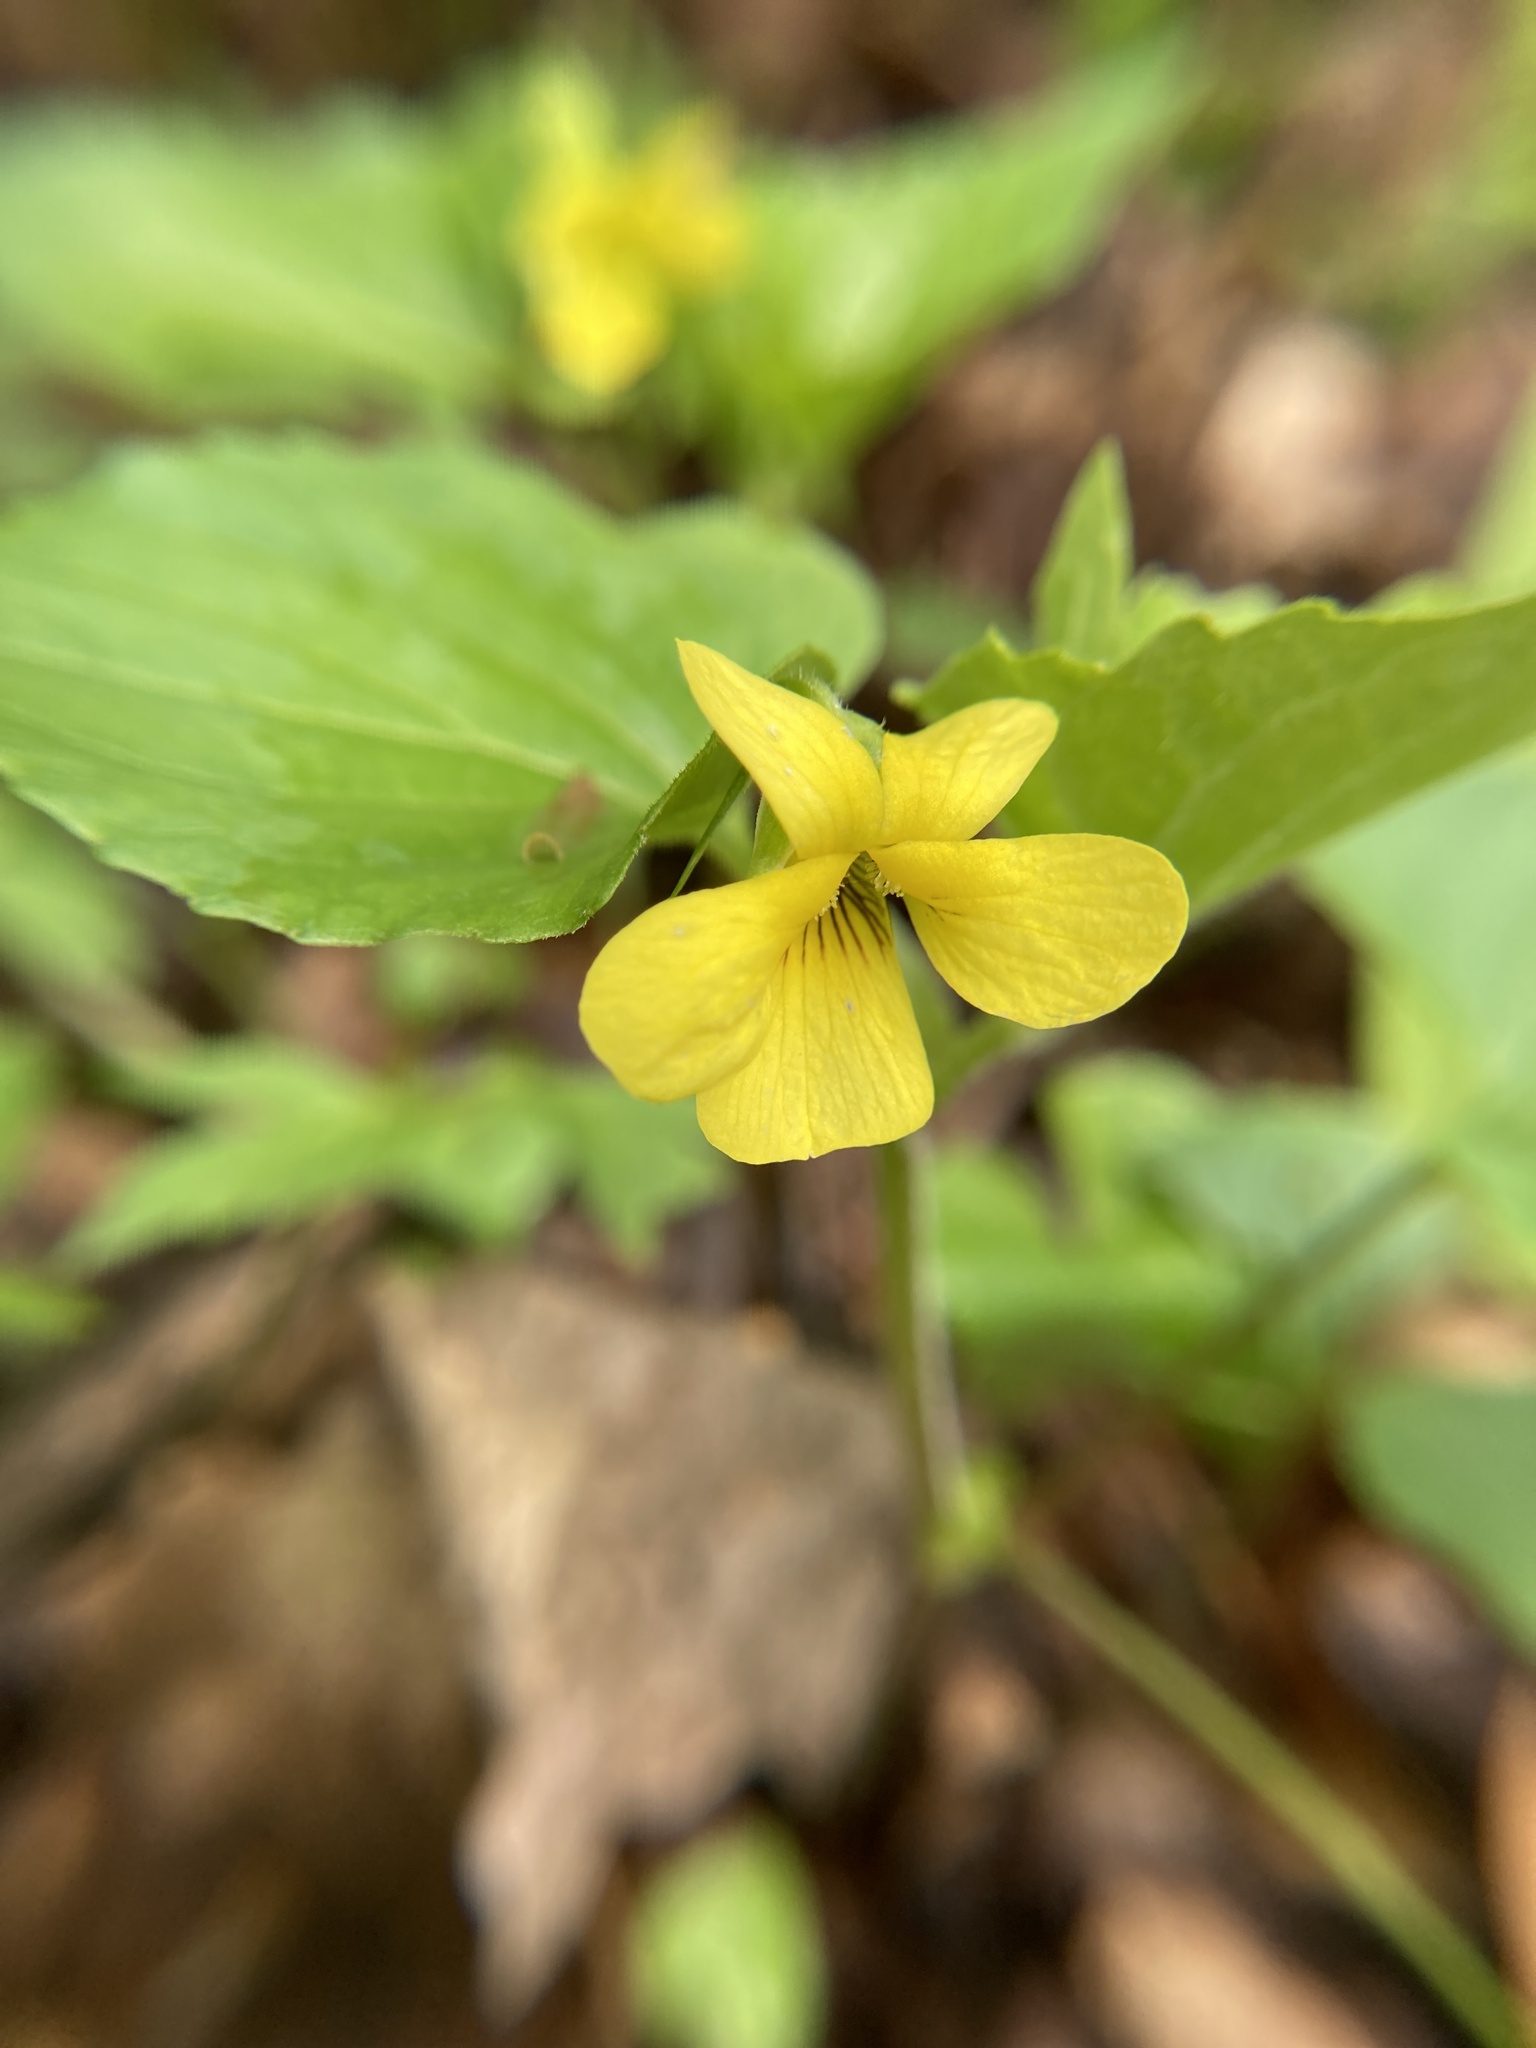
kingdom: Plantae
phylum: Tracheophyta
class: Magnoliopsida
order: Malpighiales
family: Violaceae
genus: Viola
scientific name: Viola eriocarpa
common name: Smooth yellow violet
